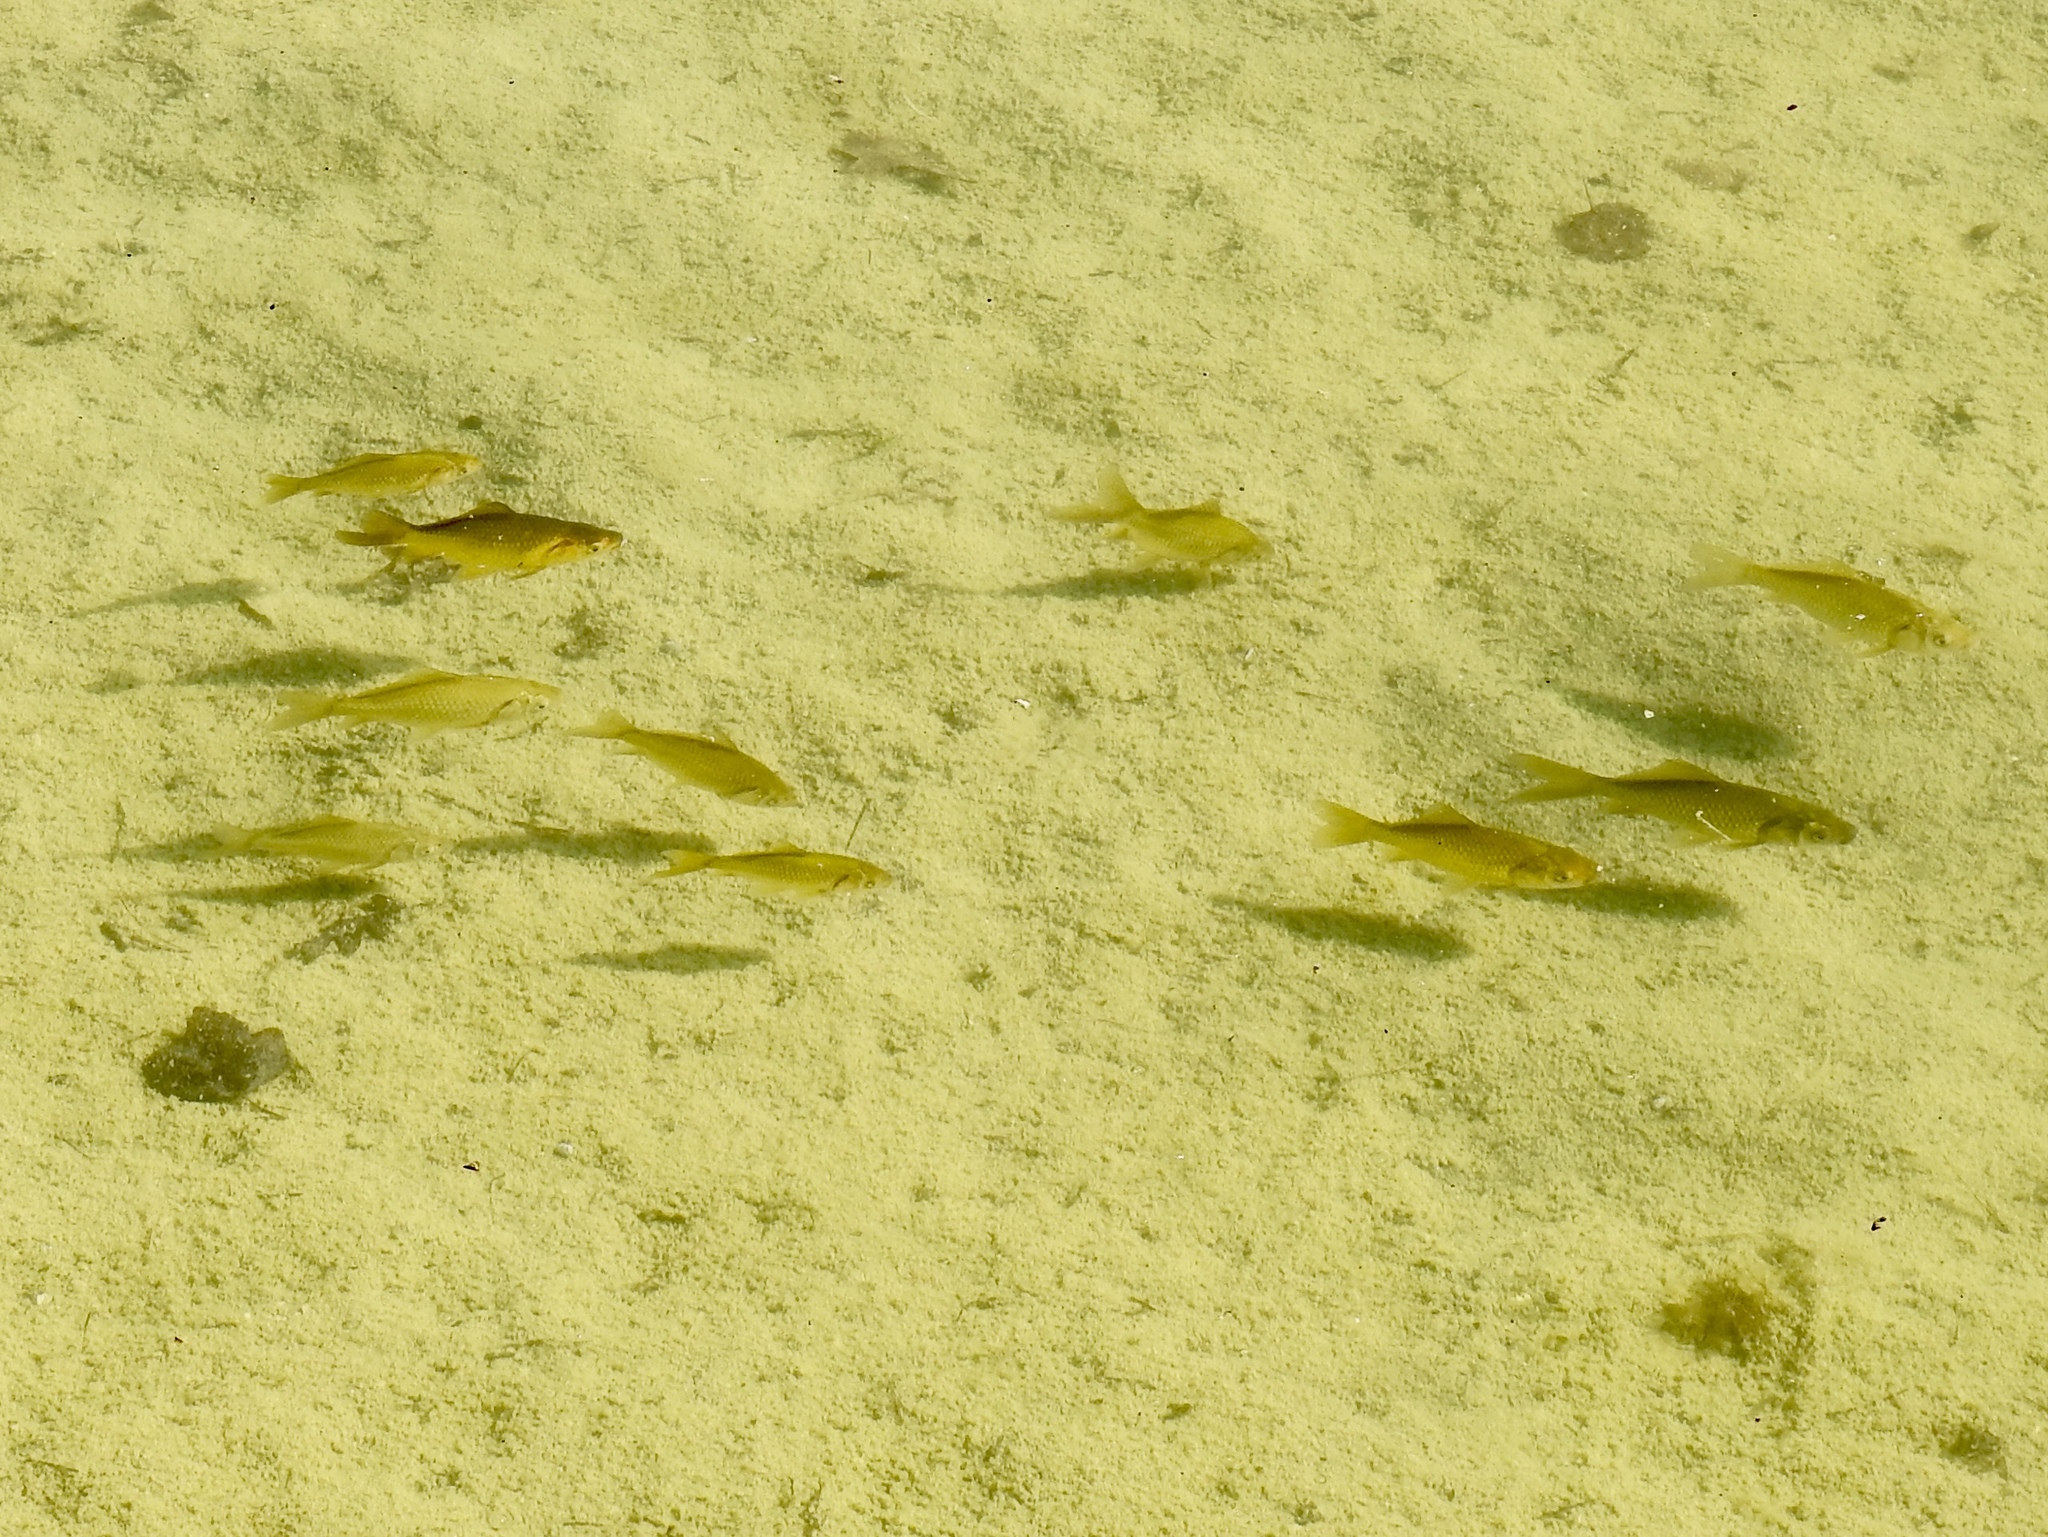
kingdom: Animalia
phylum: Chordata
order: Cypriniformes
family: Cyprinidae
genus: Carassius
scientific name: Carassius auratus
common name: Goldfish
